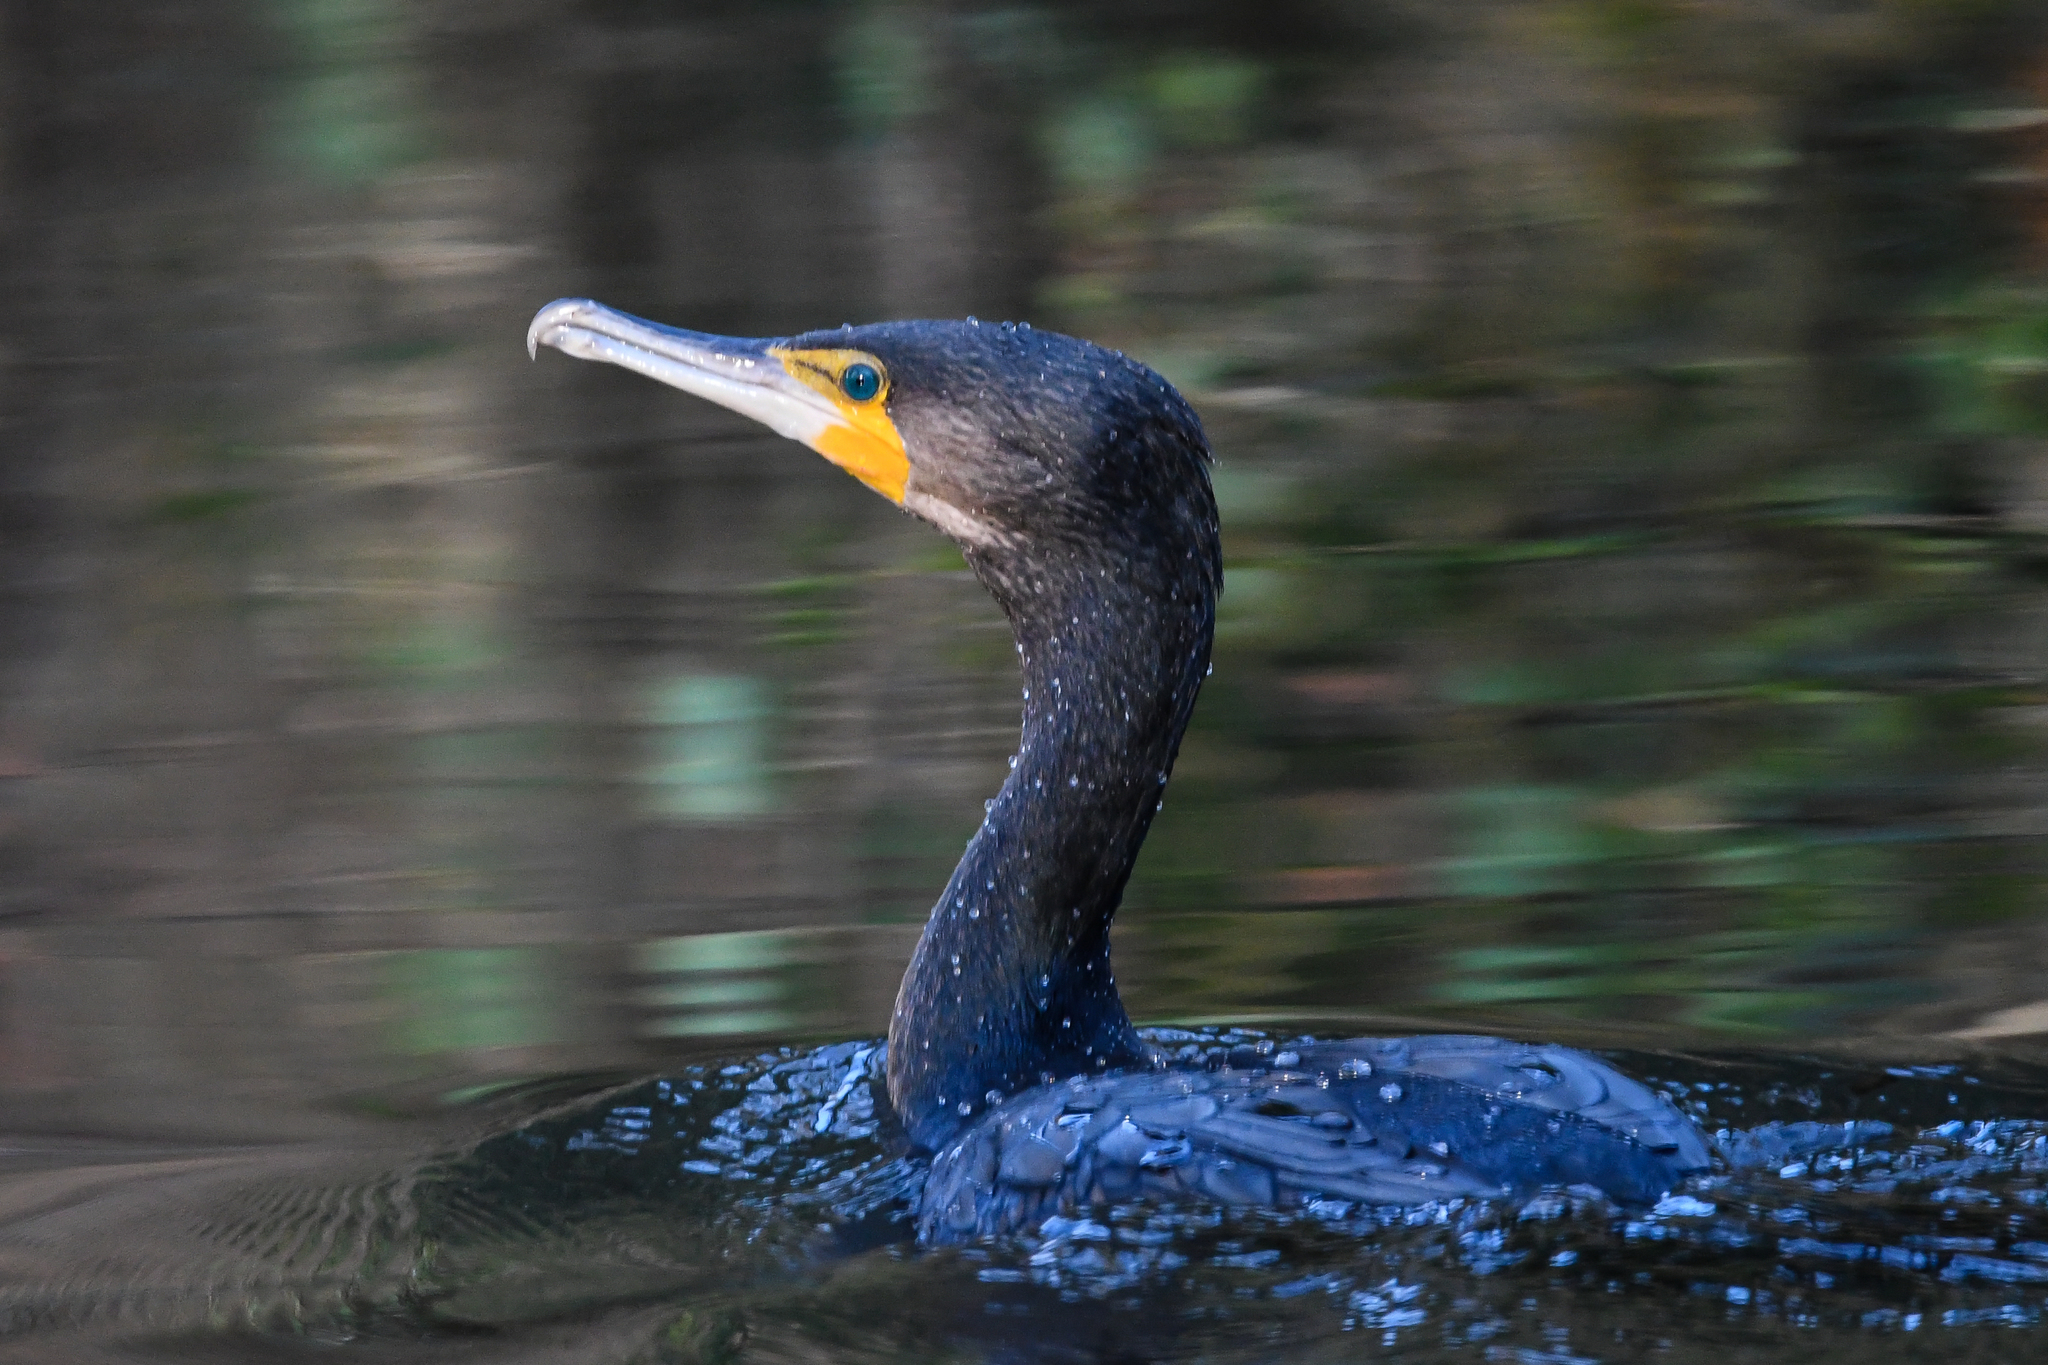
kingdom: Animalia
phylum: Chordata
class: Aves
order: Suliformes
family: Phalacrocoracidae
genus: Phalacrocorax
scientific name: Phalacrocorax carbo
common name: Great cormorant
